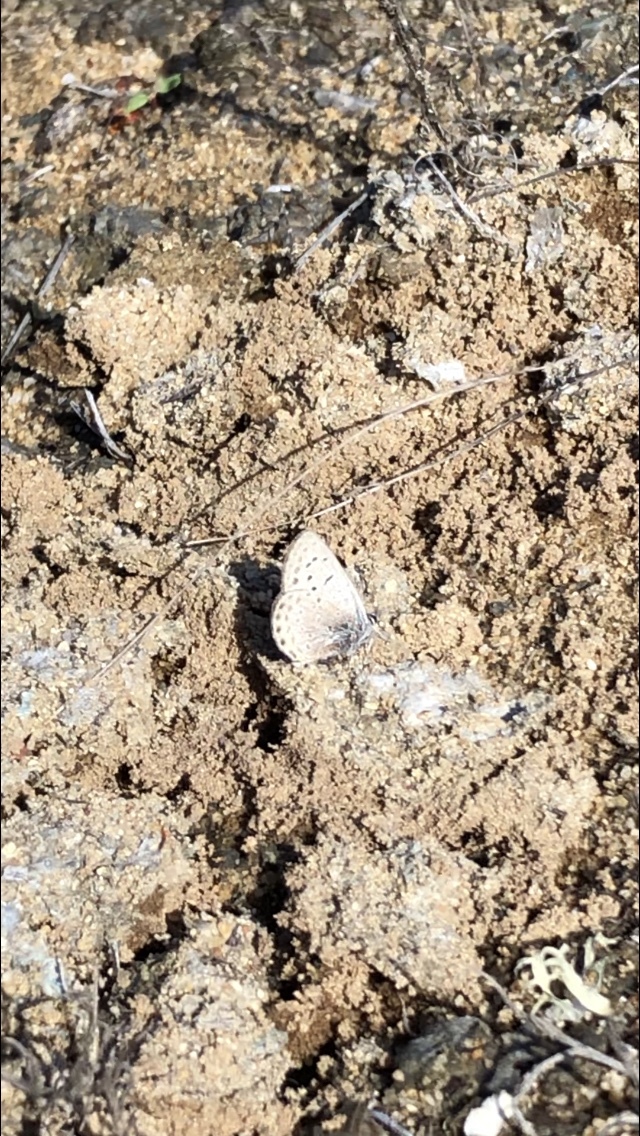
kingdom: Animalia
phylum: Arthropoda
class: Insecta
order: Lepidoptera
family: Lycaenidae
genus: Icaricia
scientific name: Icaricia acmon
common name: Acmon blue
